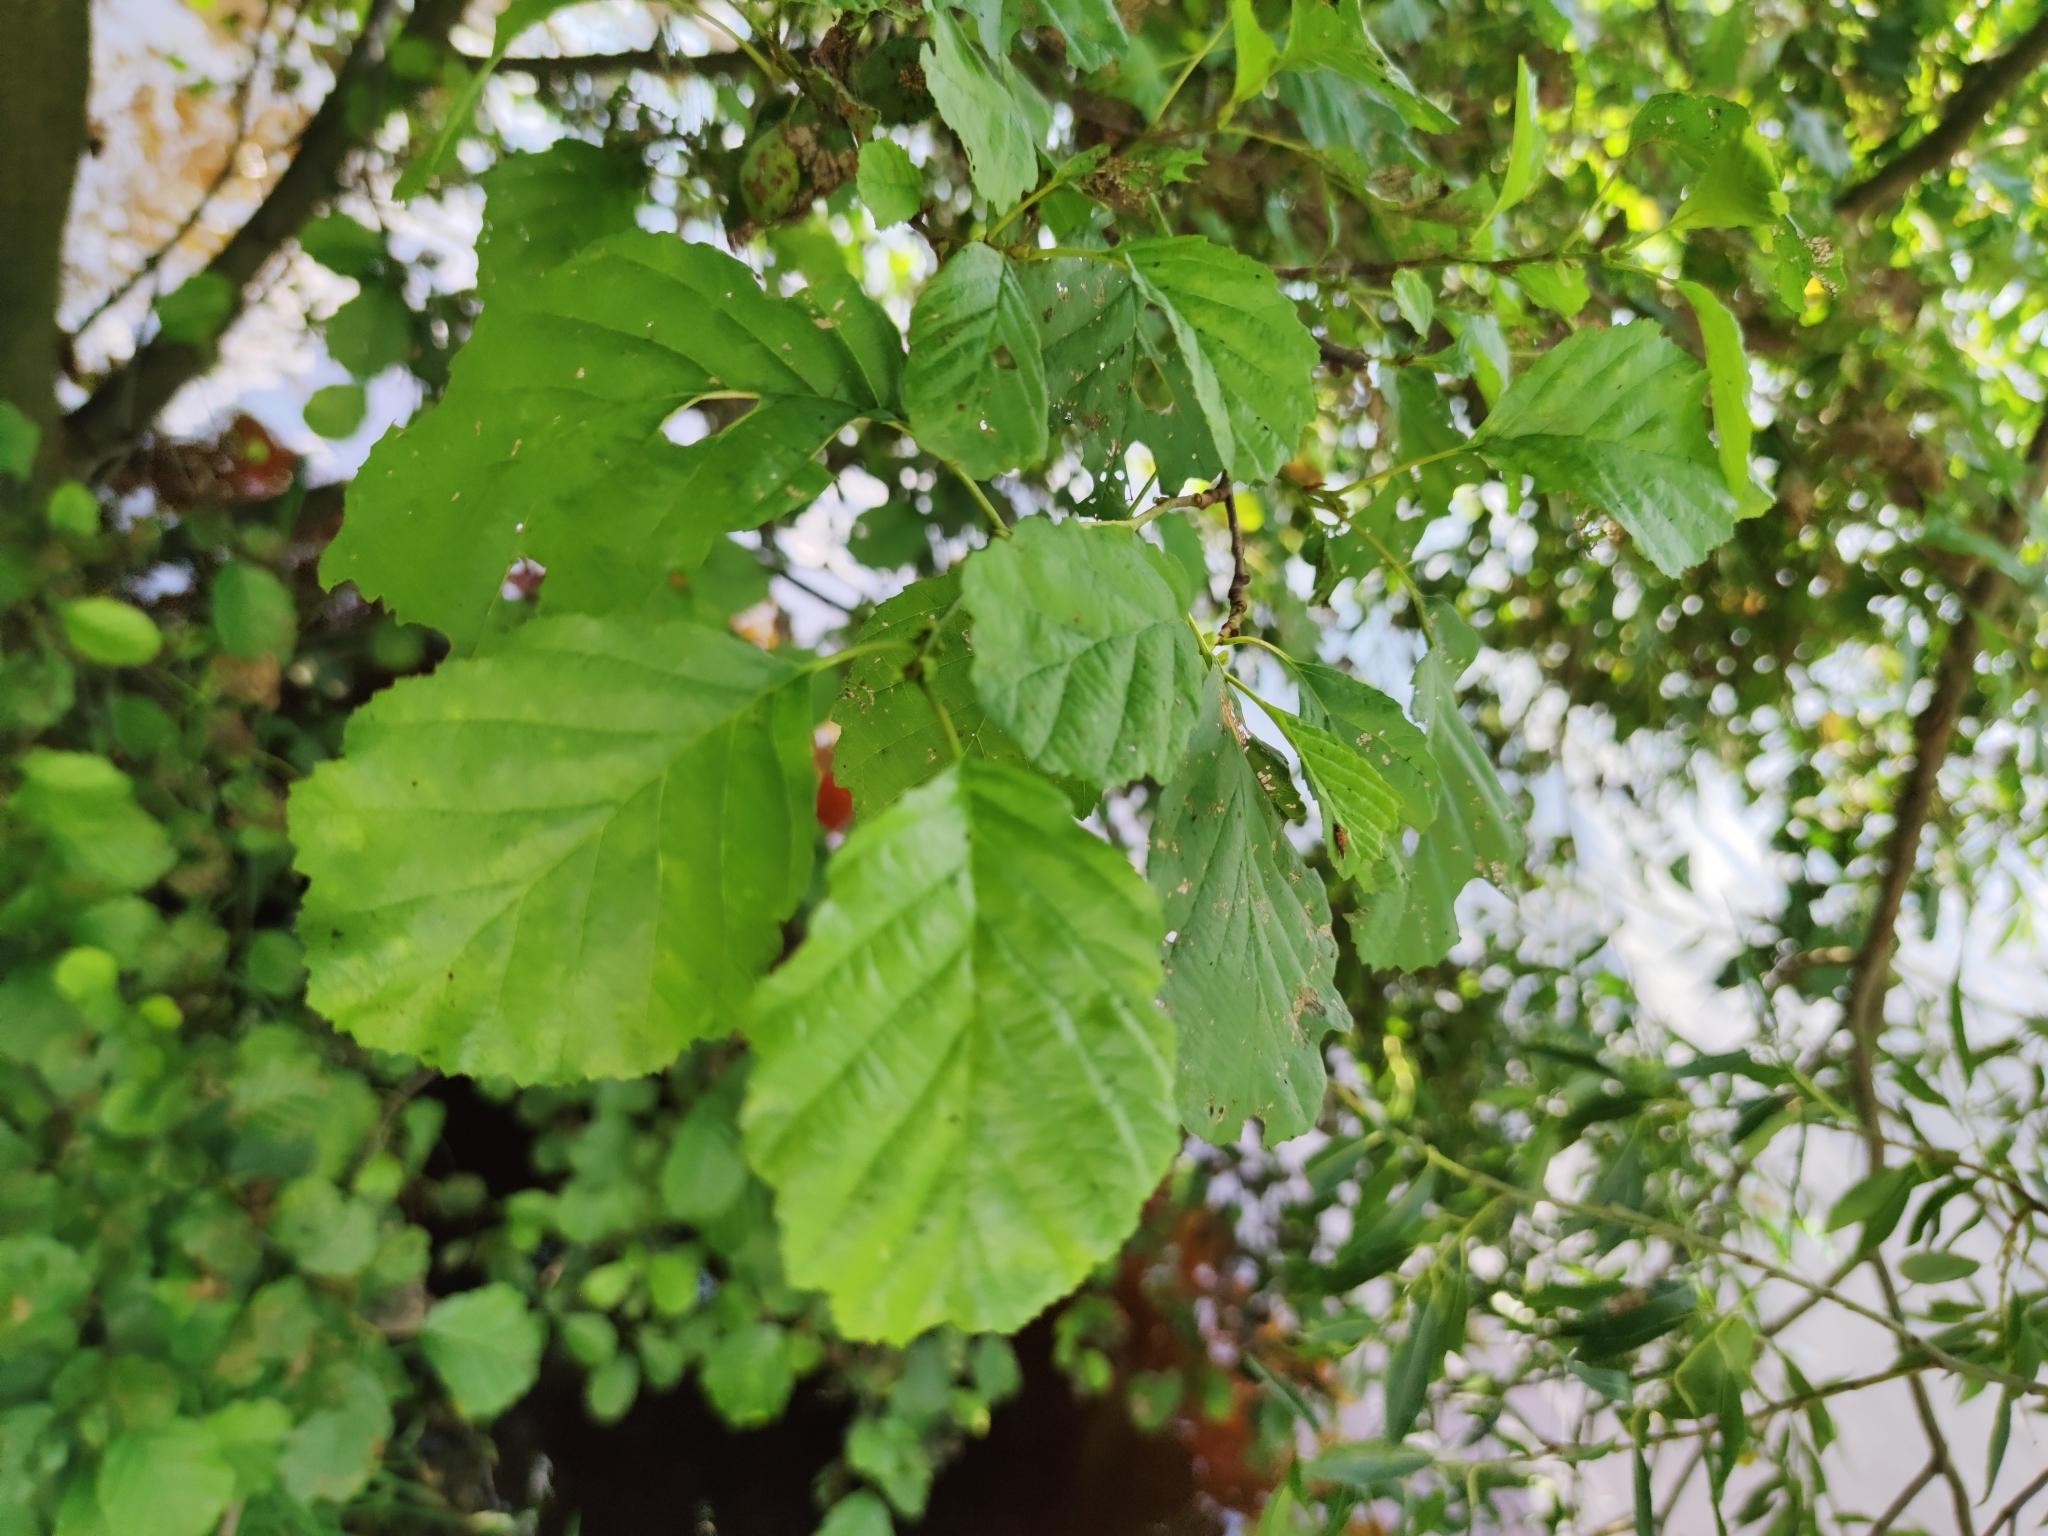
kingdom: Plantae
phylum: Tracheophyta
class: Magnoliopsida
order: Fagales
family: Betulaceae
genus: Alnus
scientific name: Alnus glutinosa
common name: Black alder
